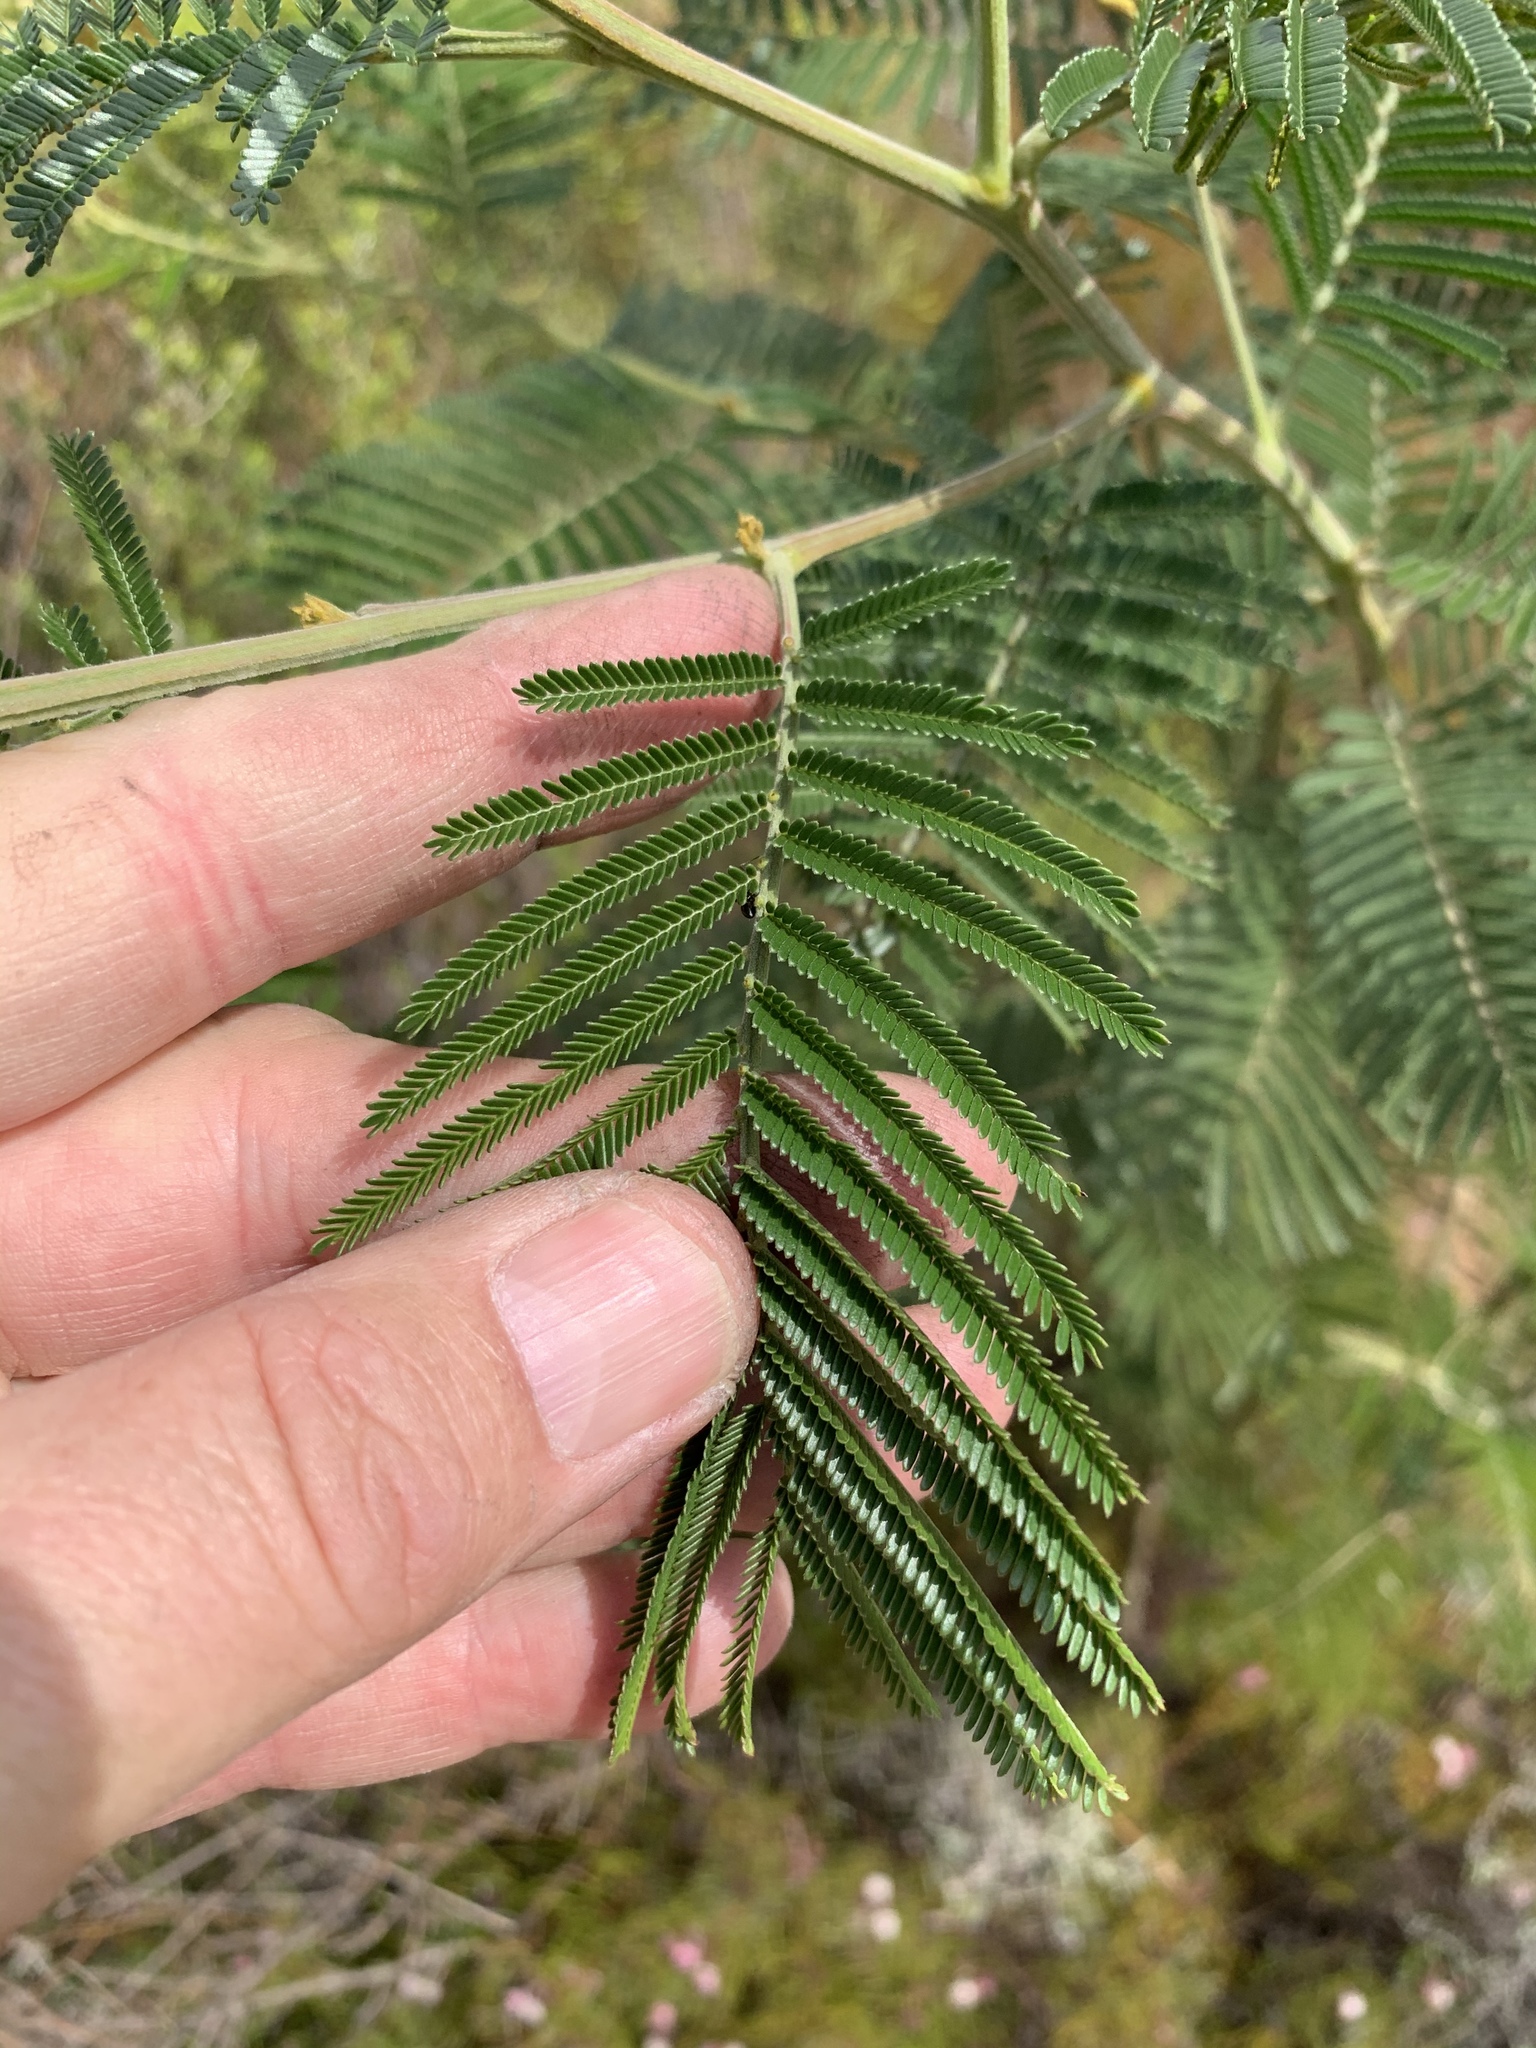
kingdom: Plantae
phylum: Tracheophyta
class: Magnoliopsida
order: Fabales
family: Fabaceae
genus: Acacia
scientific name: Acacia mearnsii
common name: Black wattle
